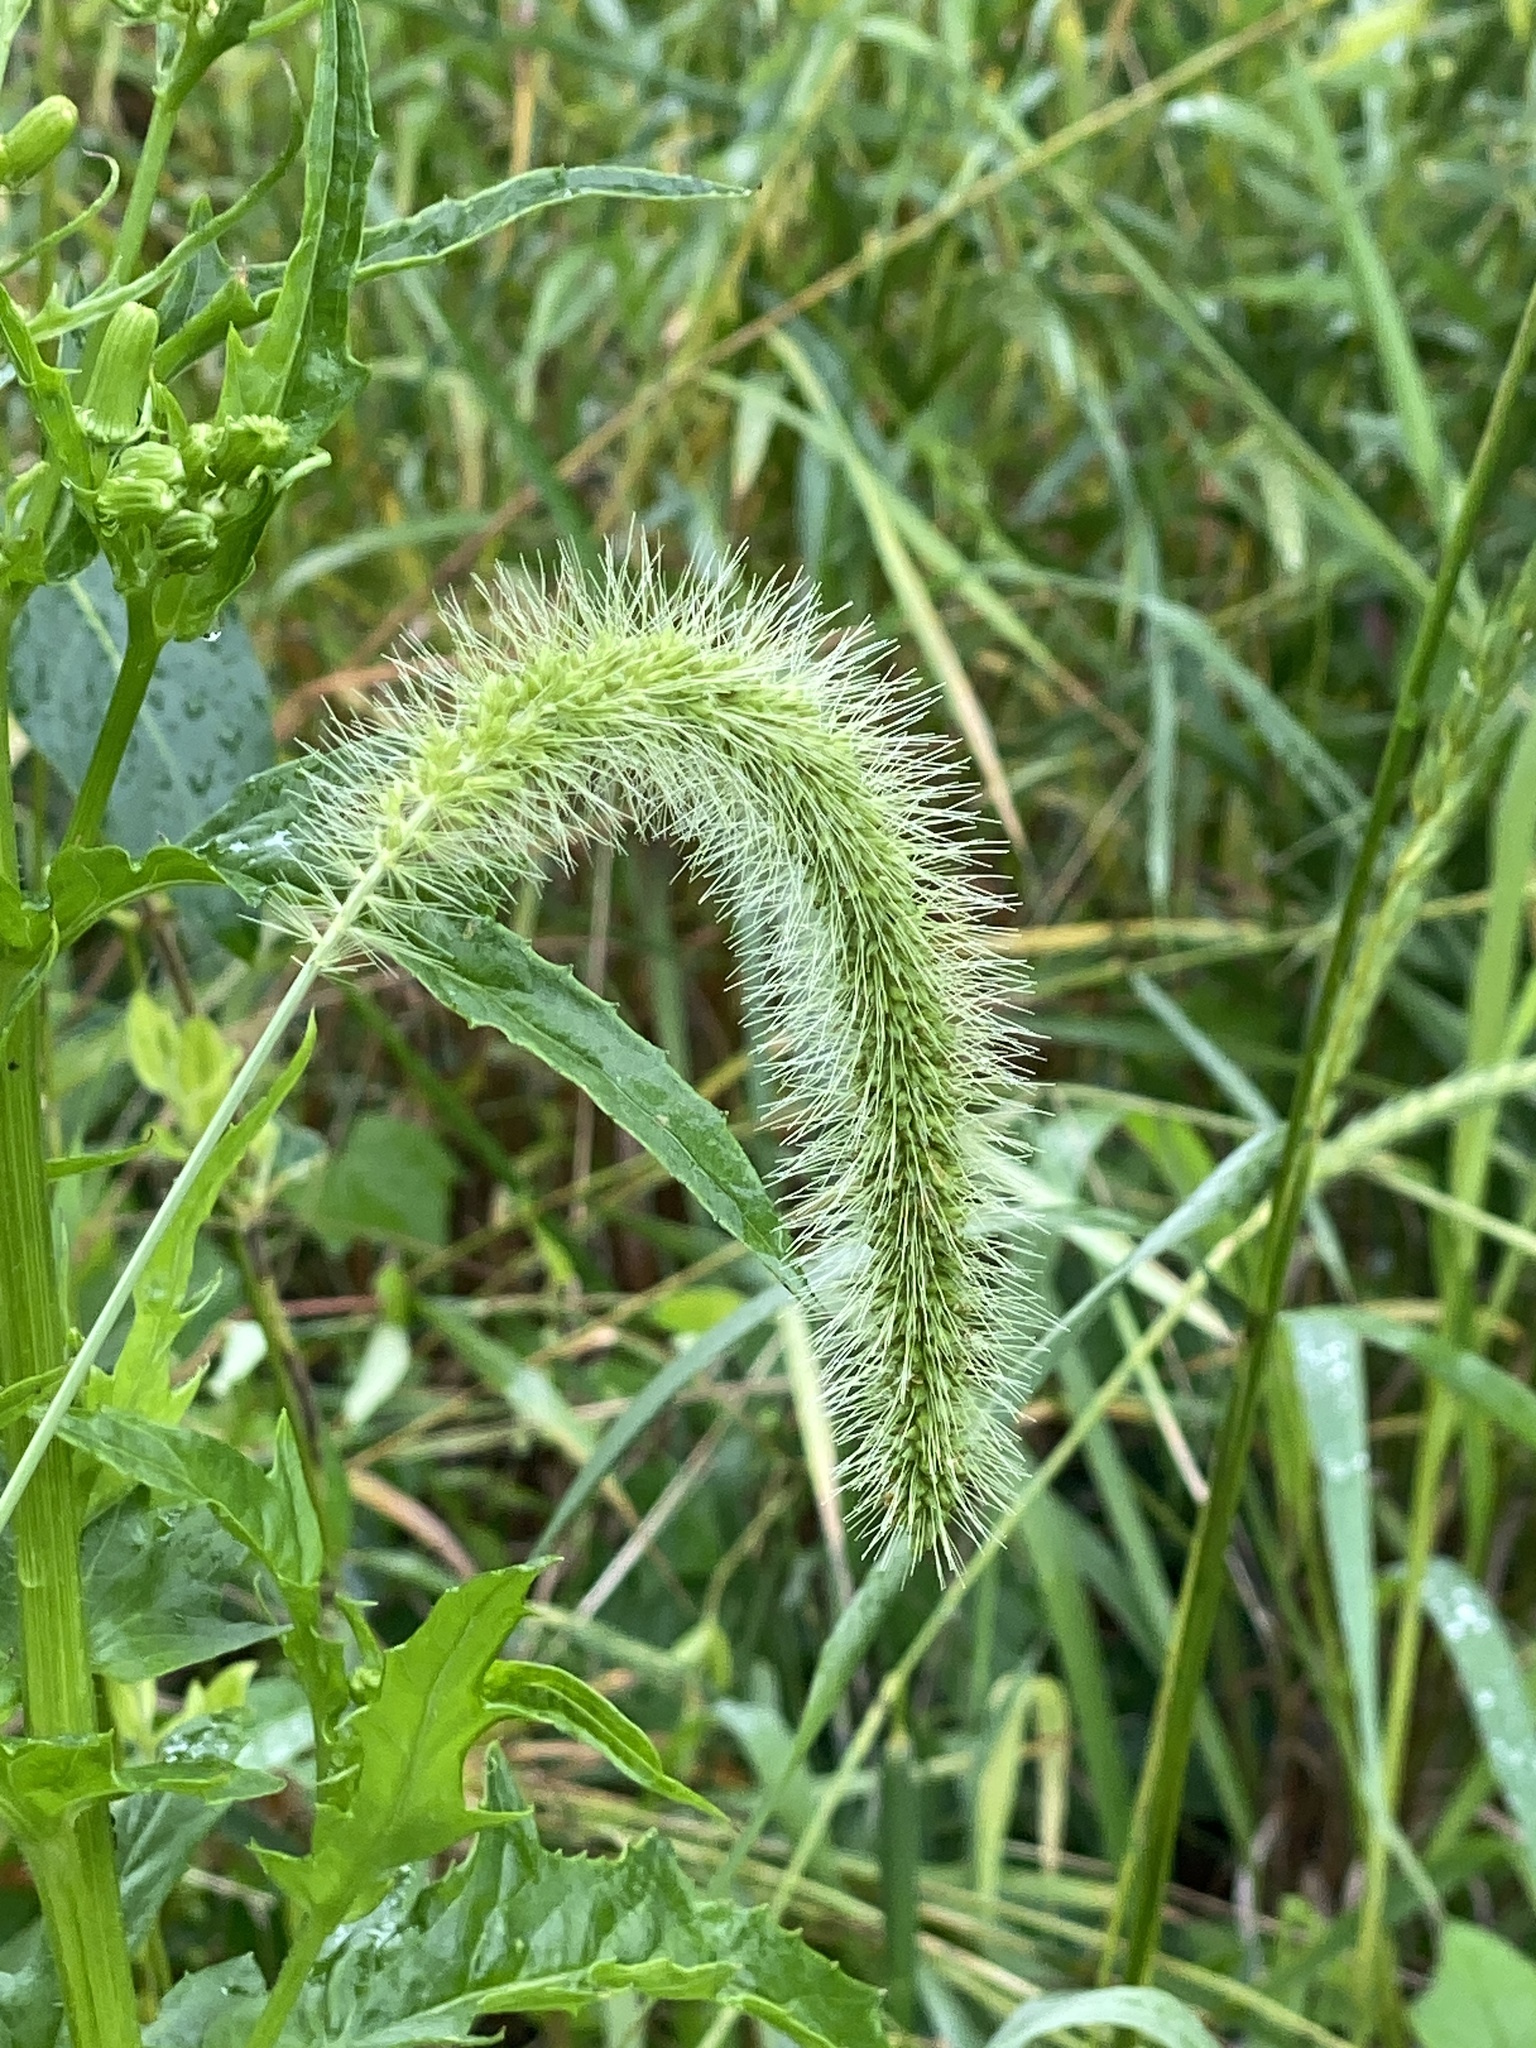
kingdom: Plantae
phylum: Tracheophyta
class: Liliopsida
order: Poales
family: Poaceae
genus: Setaria
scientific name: Setaria faberi
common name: Nodding bristle-grass
